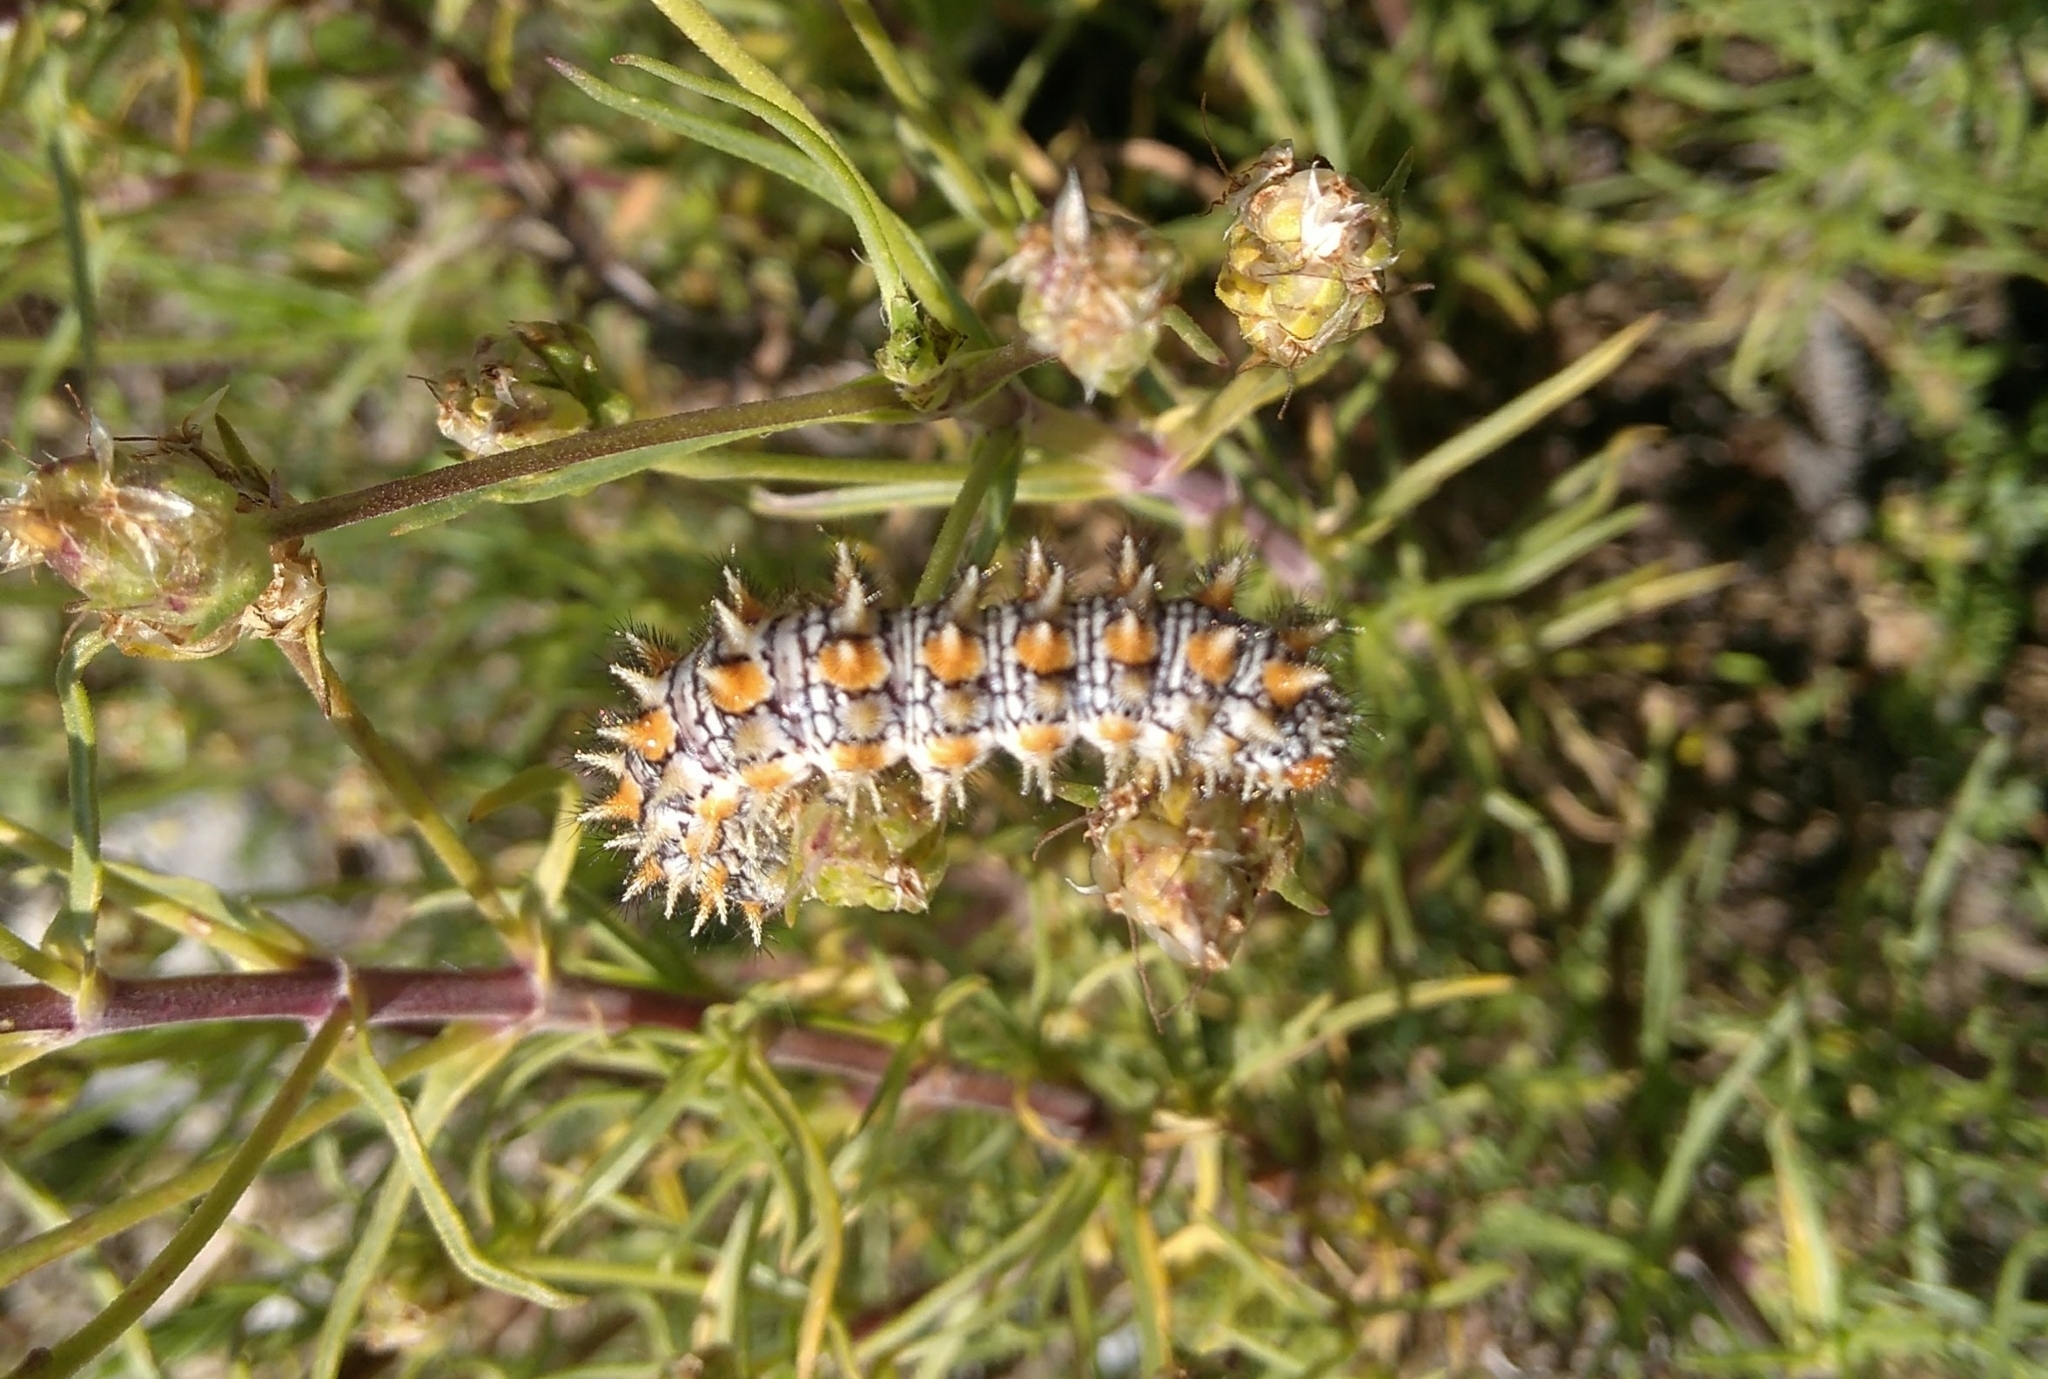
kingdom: Animalia
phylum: Arthropoda
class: Insecta
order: Lepidoptera
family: Nymphalidae
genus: Melitaea
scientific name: Melitaea didyma
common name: Spotted fritillary
